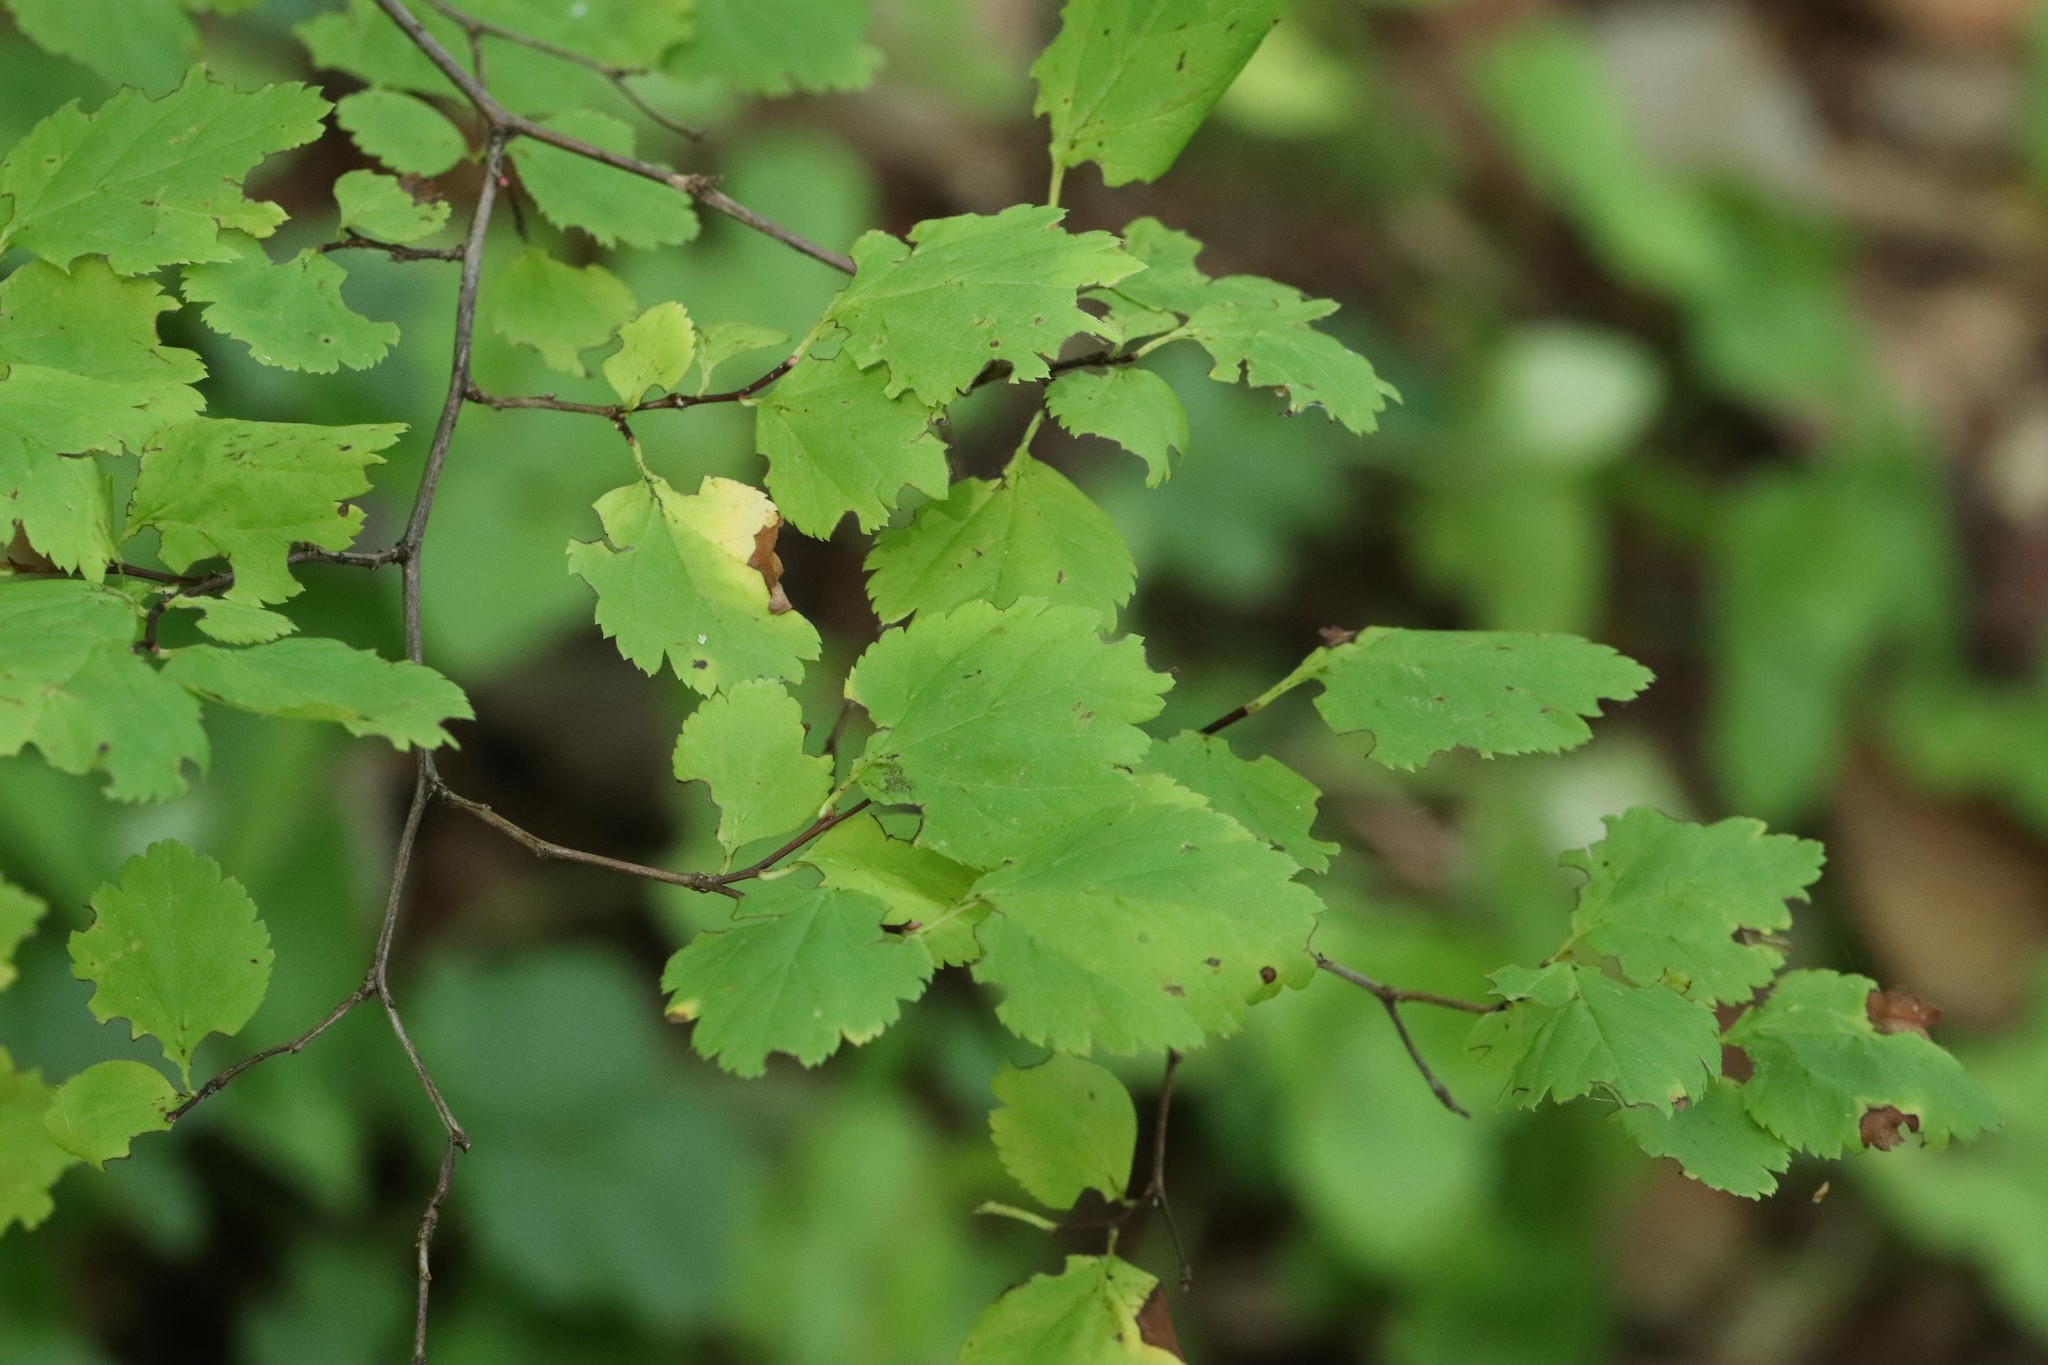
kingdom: Plantae
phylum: Tracheophyta
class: Magnoliopsida
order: Rosales
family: Rosaceae
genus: Spiraea
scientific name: Spiraea chamaedryfolia
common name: Elm-leaved spiraea
